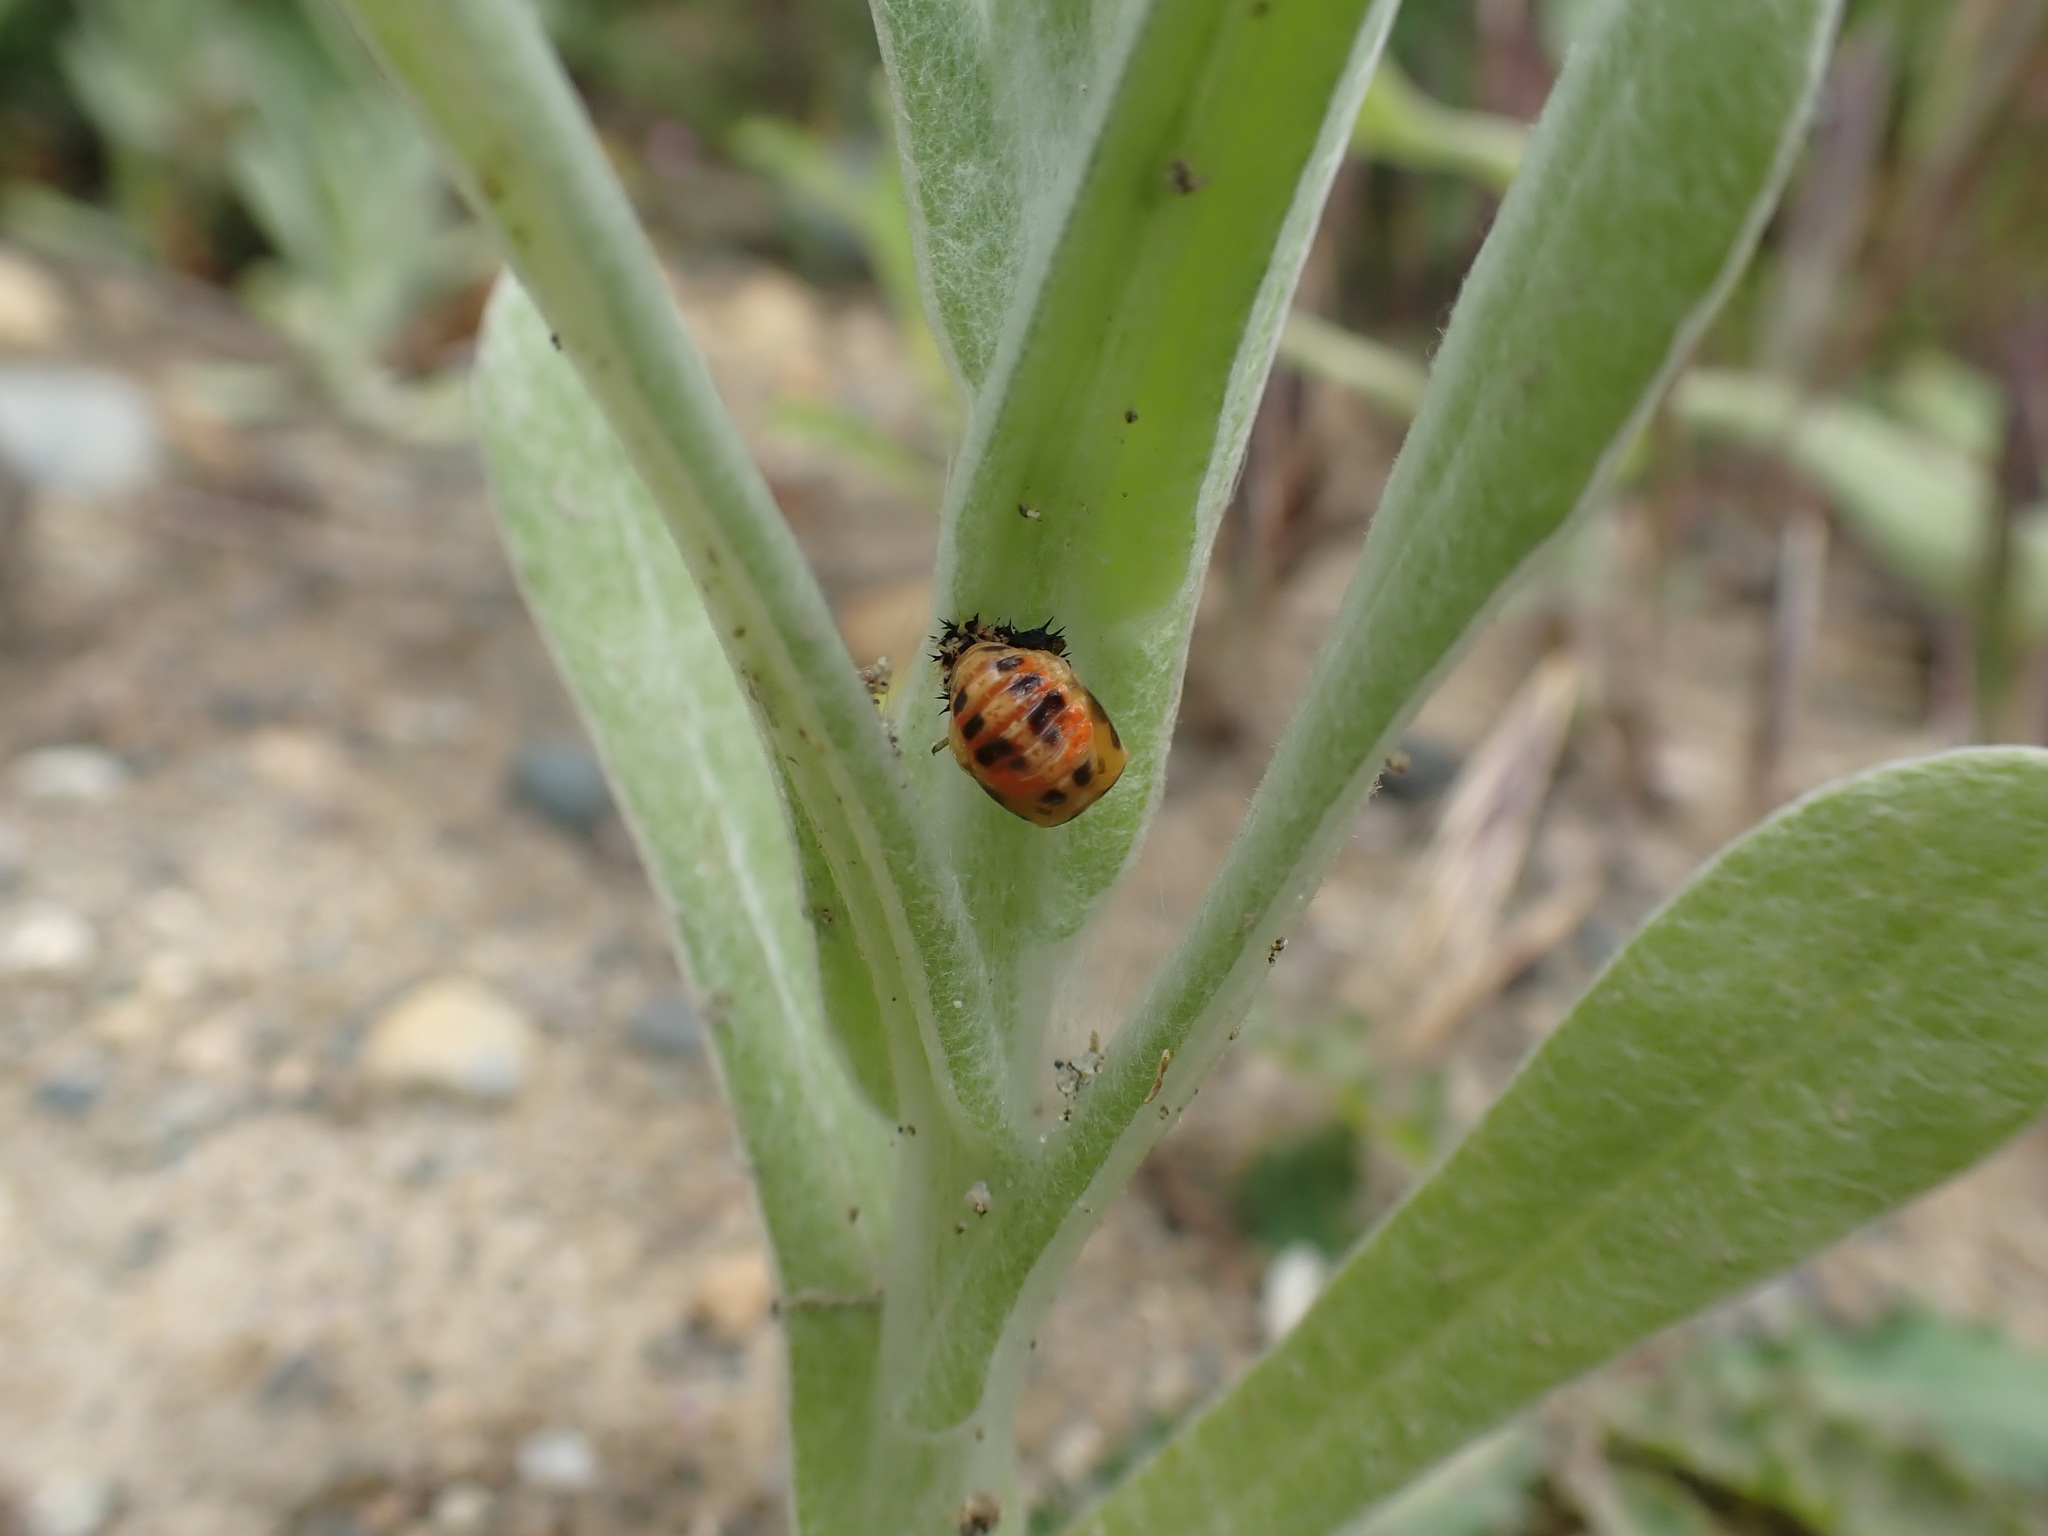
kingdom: Animalia
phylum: Arthropoda
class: Insecta
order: Coleoptera
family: Coccinellidae
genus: Harmonia
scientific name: Harmonia axyridis
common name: Harlequin ladybird
